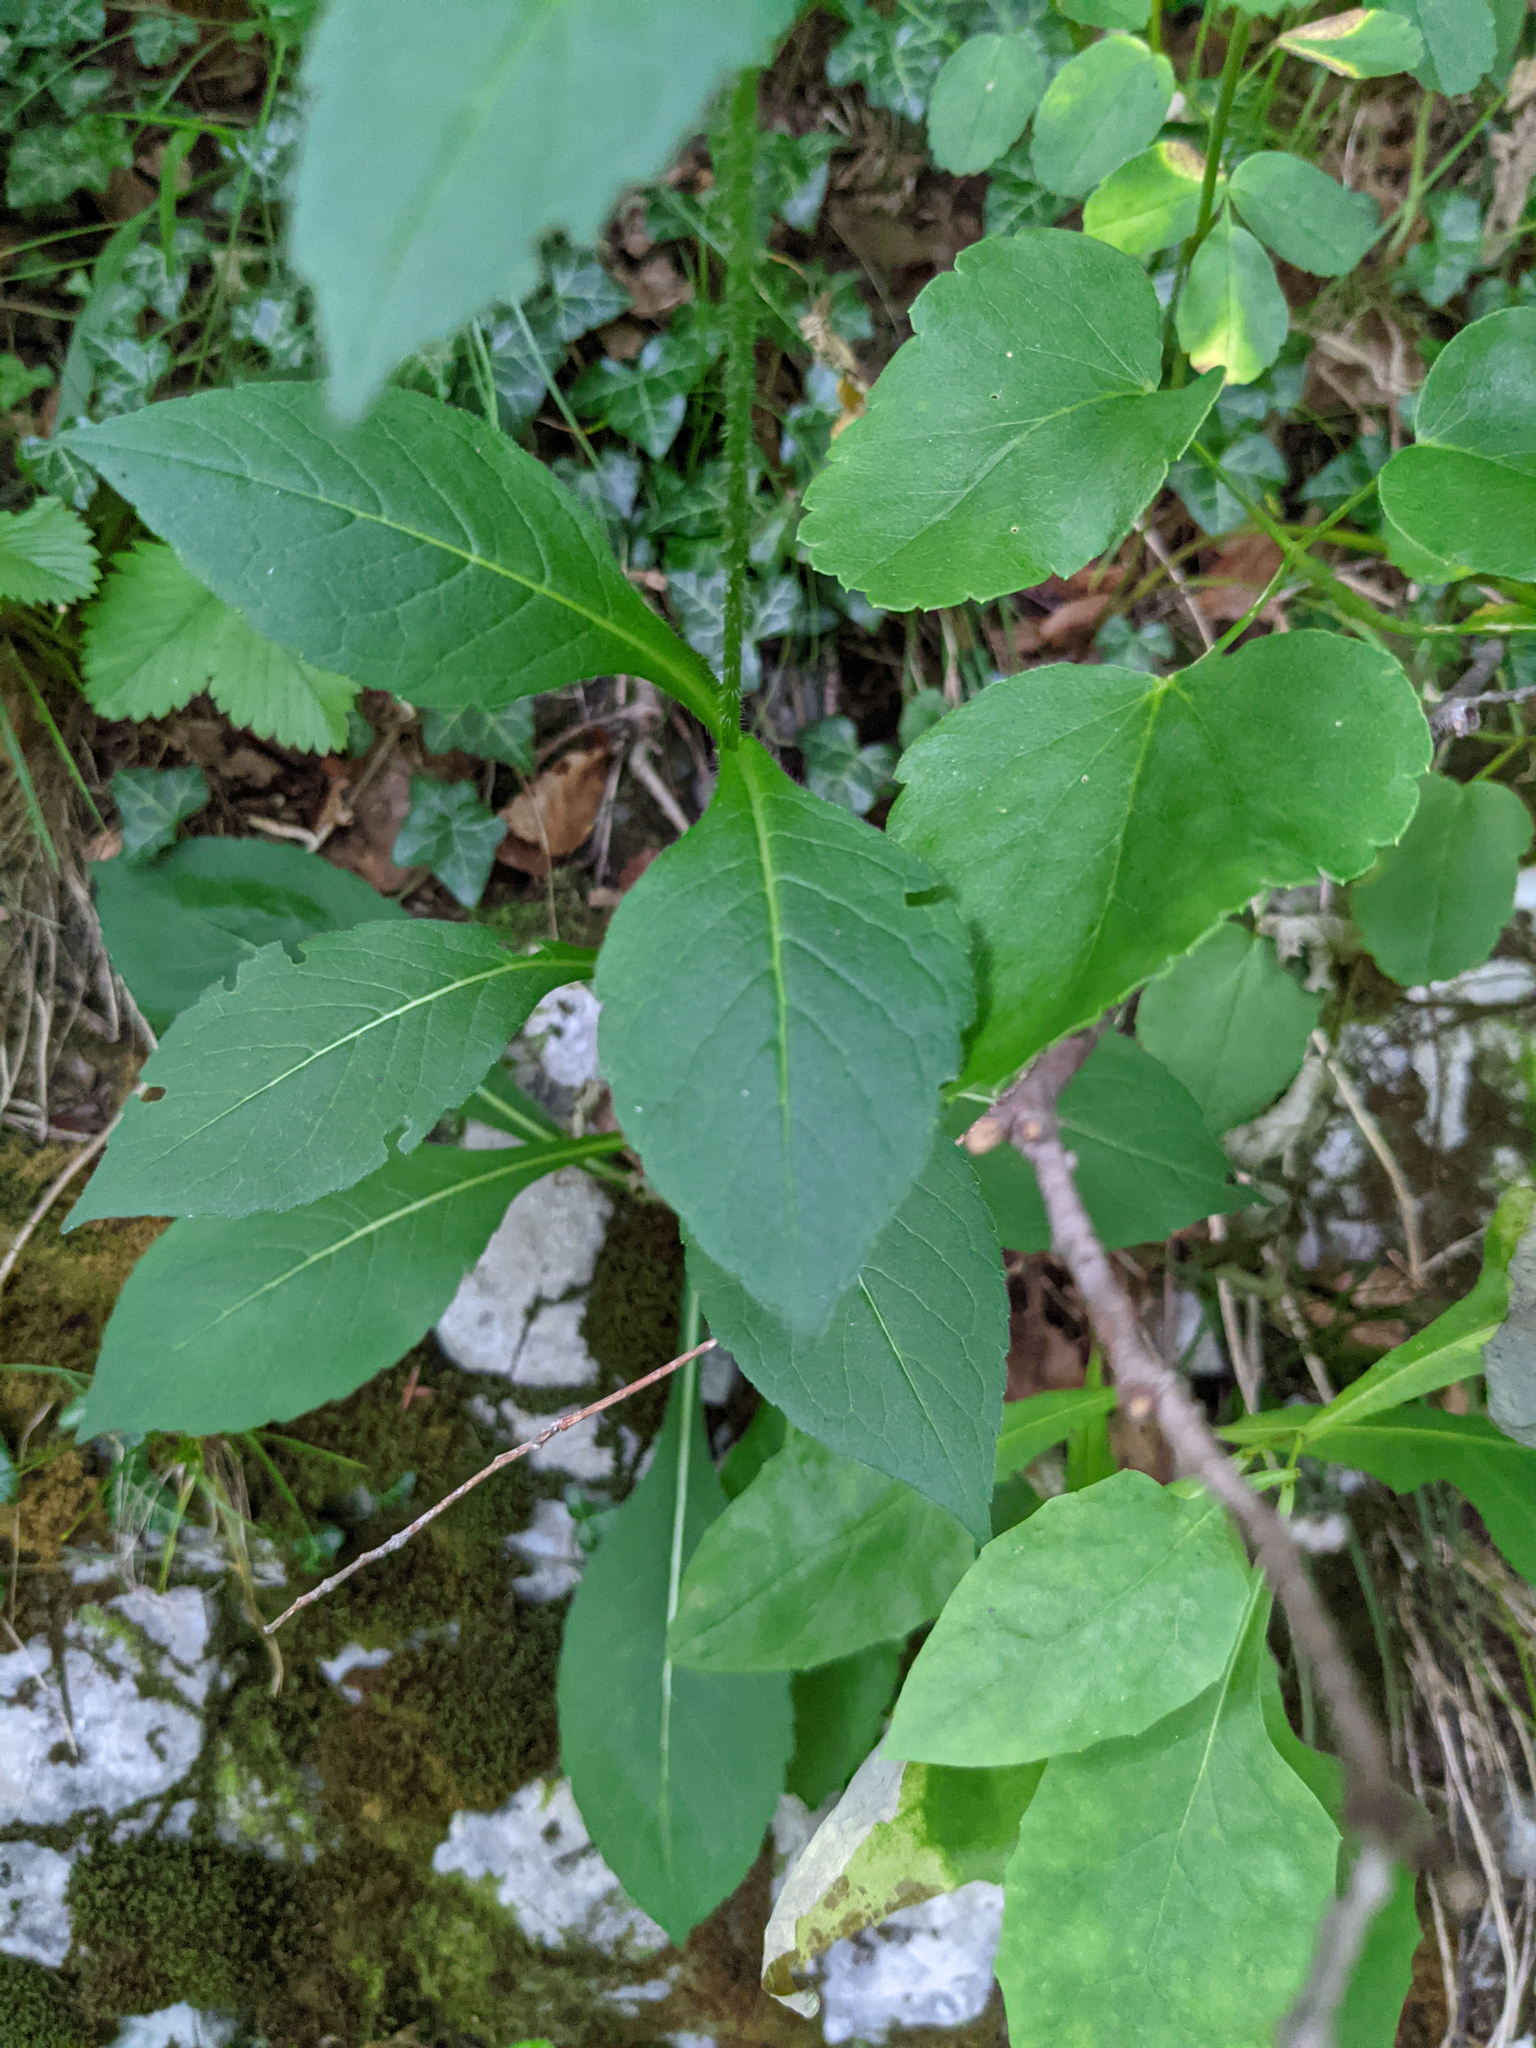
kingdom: Plantae
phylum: Tracheophyta
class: Magnoliopsida
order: Dipsacales
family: Caprifoliaceae
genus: Knautia
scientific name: Knautia dipsacifolia
